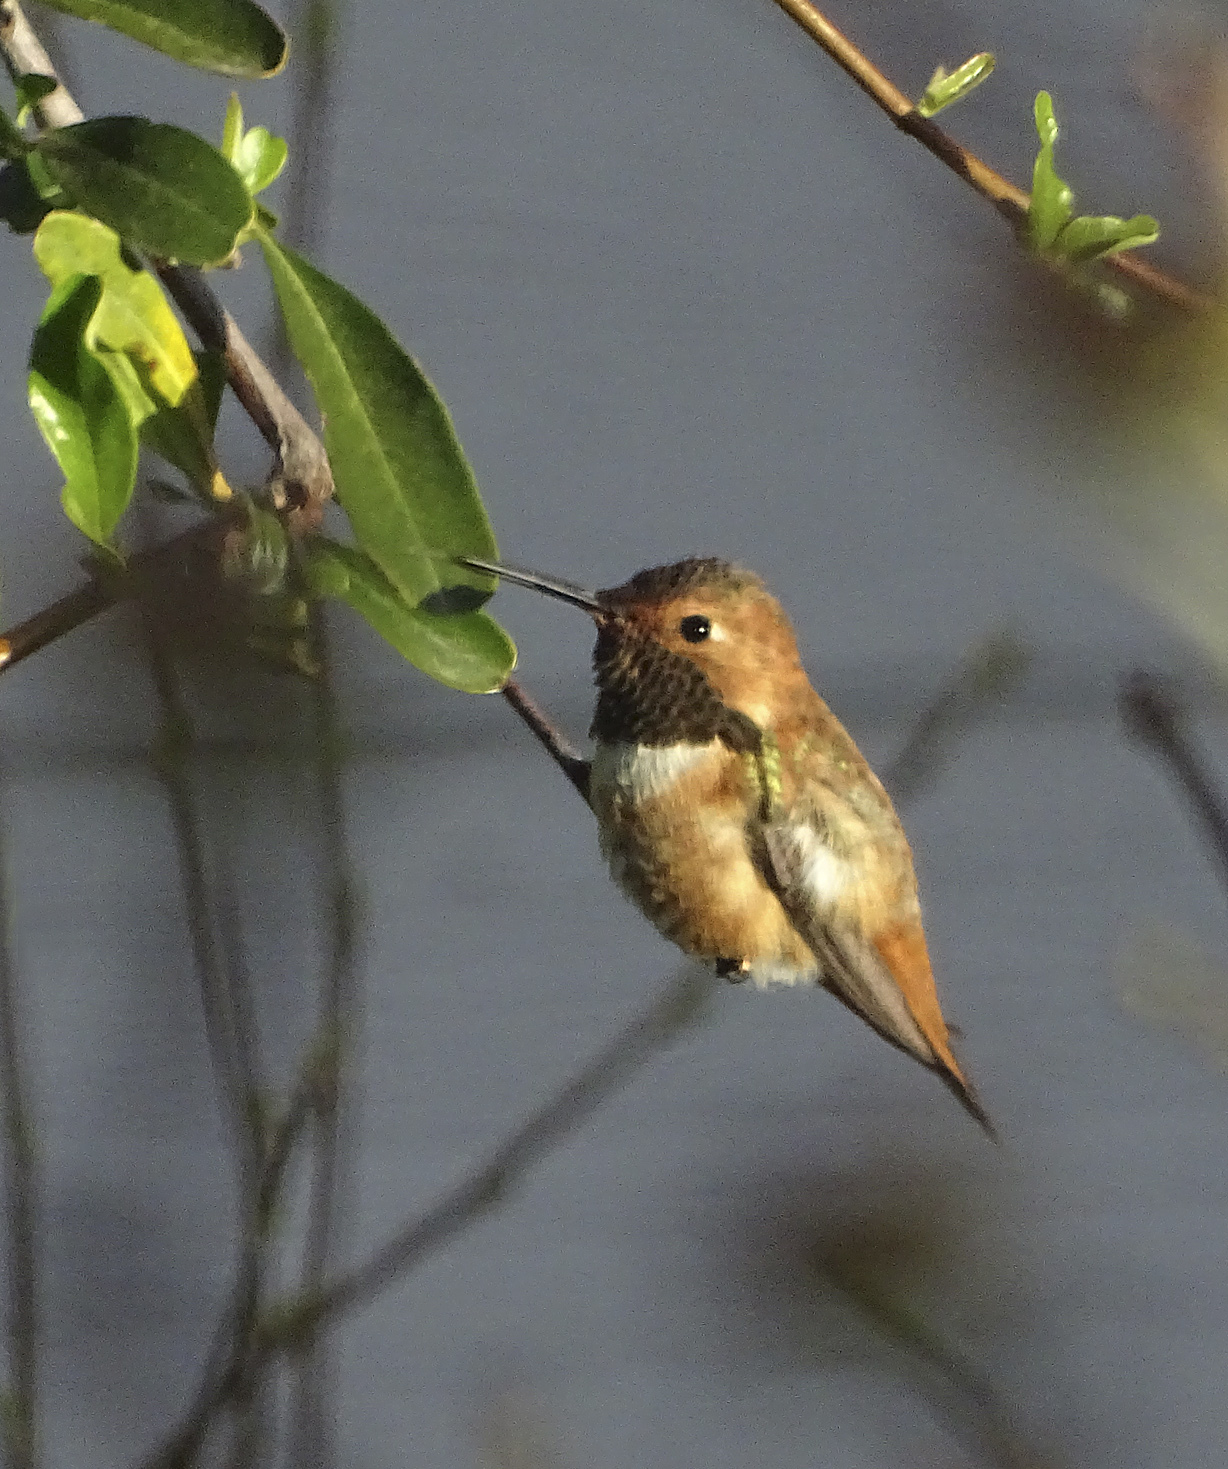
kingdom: Animalia
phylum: Chordata
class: Aves
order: Apodiformes
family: Trochilidae
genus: Selasphorus
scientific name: Selasphorus rufus
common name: Rufous hummingbird
